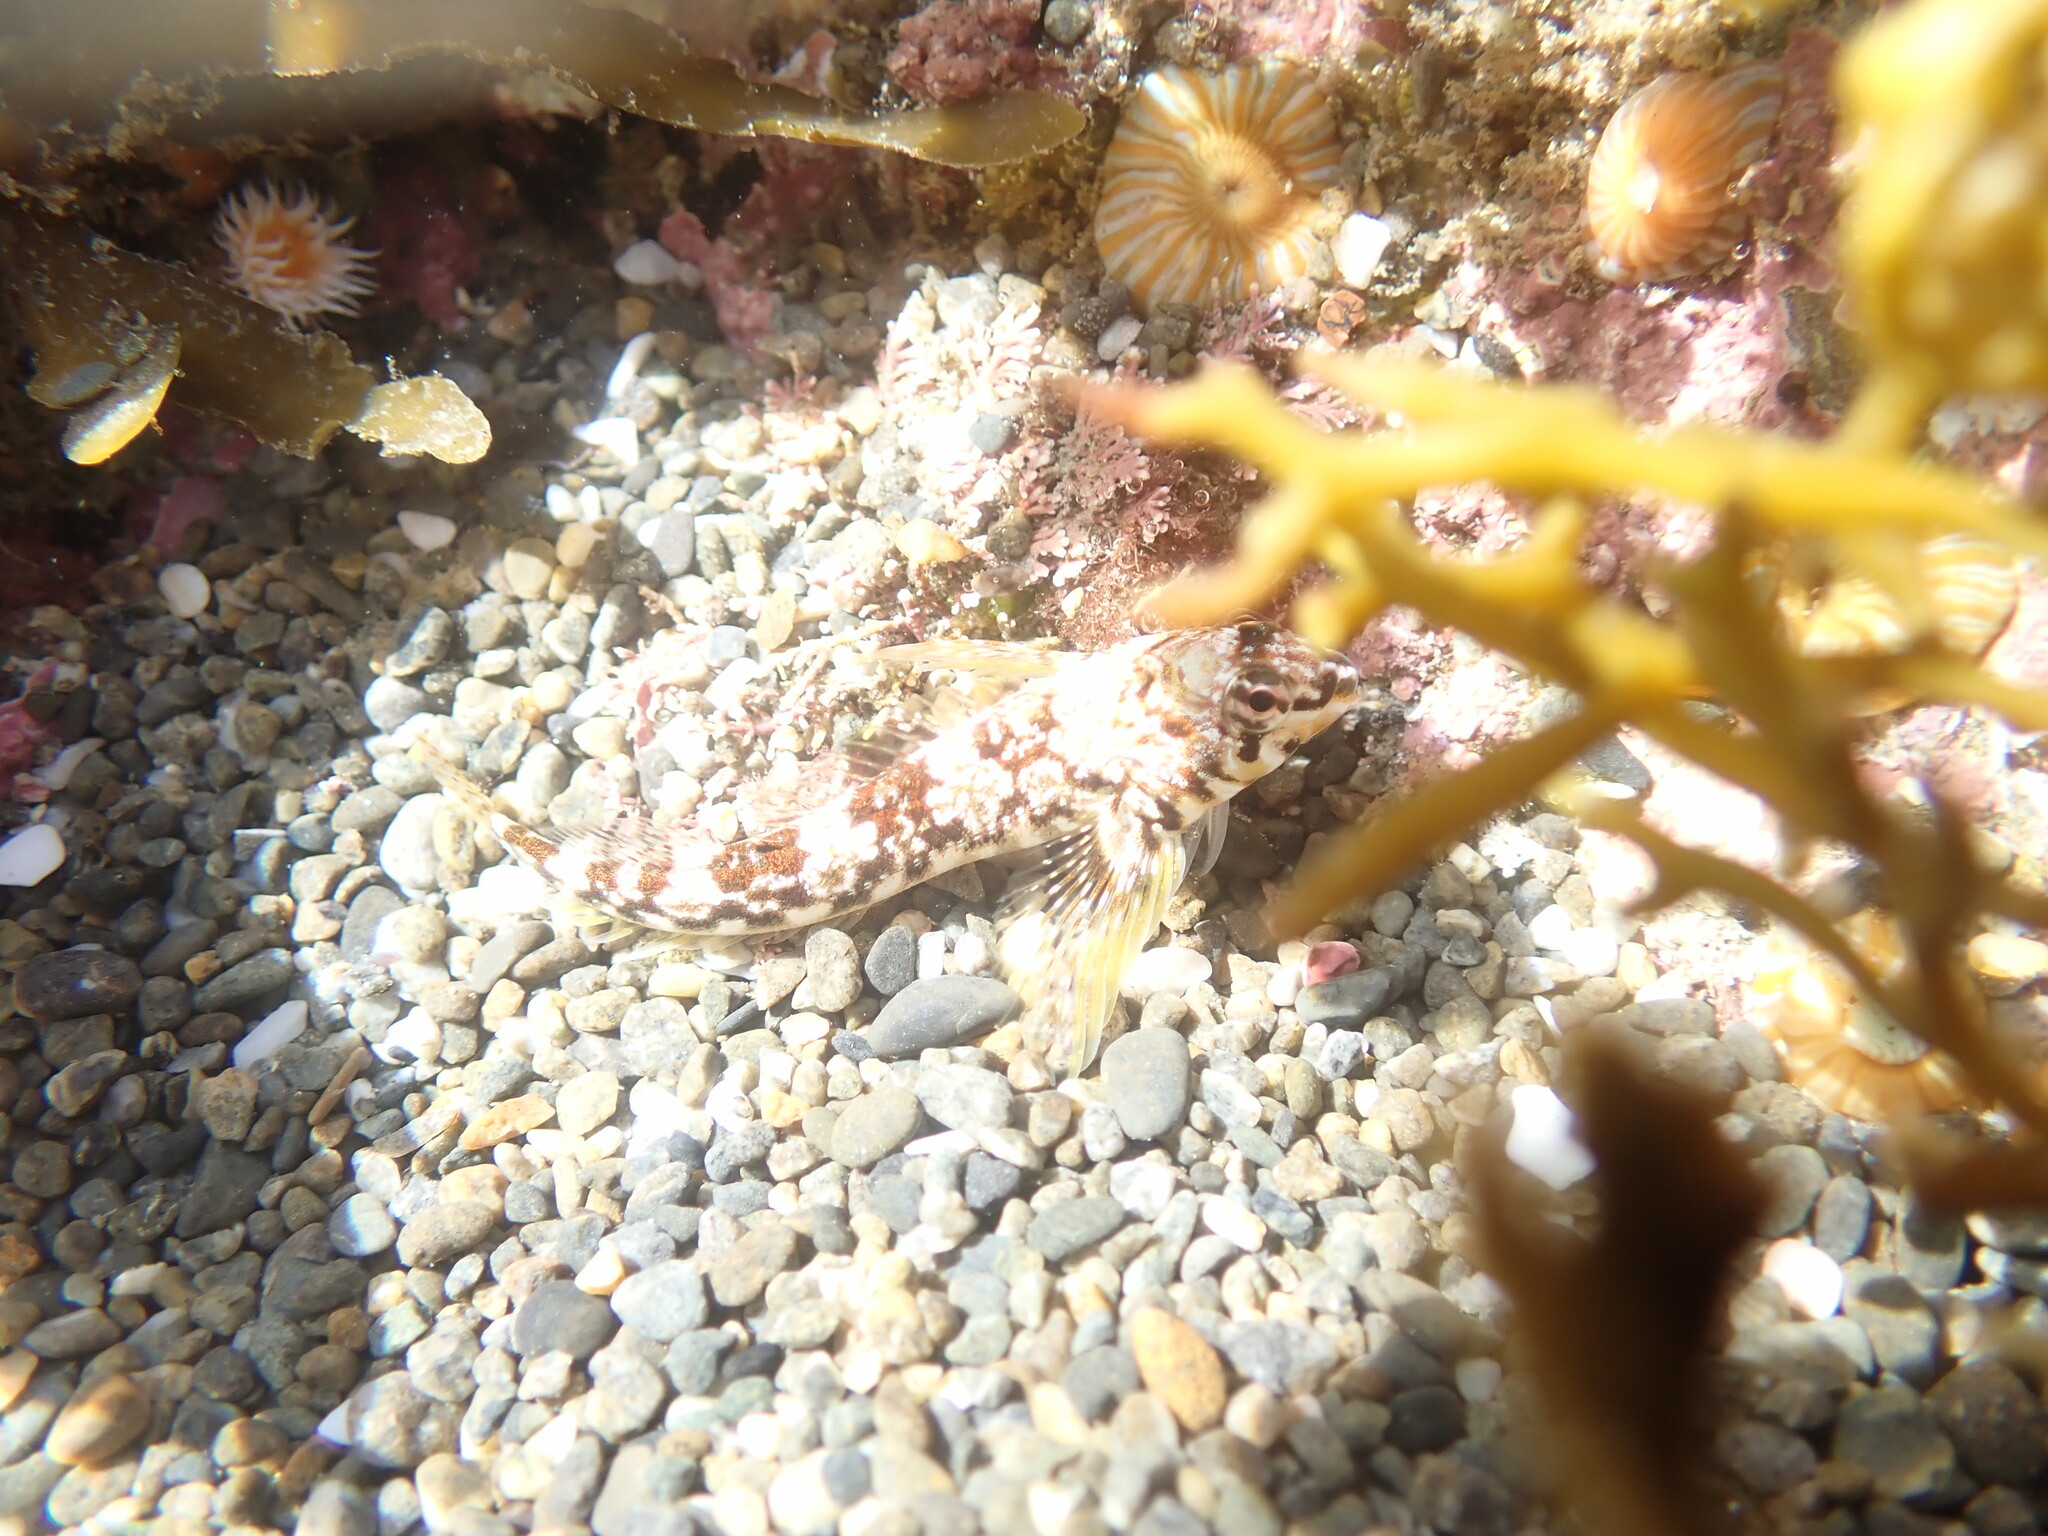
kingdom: Animalia
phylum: Chordata
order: Perciformes
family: Tripterygiidae
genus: Bellapiscis
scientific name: Bellapiscis lesleyae
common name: Mottled twister
